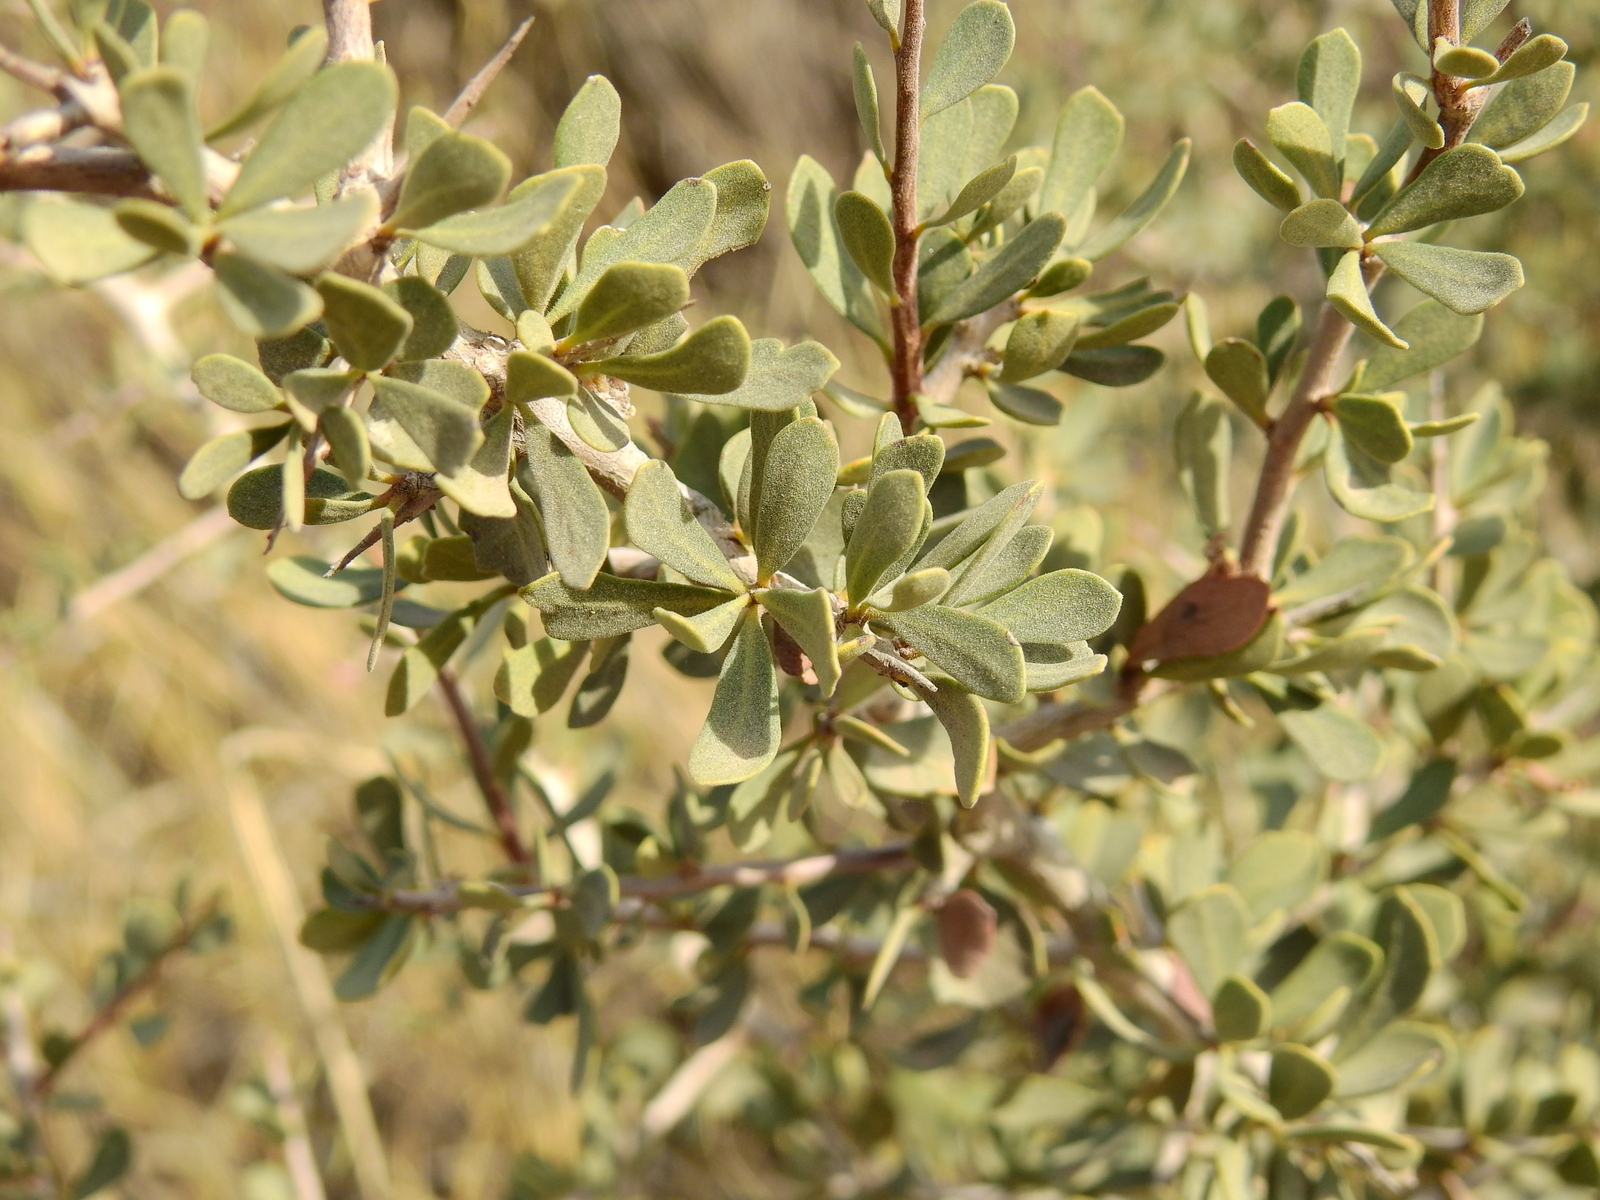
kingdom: Plantae
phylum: Tracheophyta
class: Magnoliopsida
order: Sapindales
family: Anacardiaceae
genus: Schinus
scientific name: Schinus johnstonii
